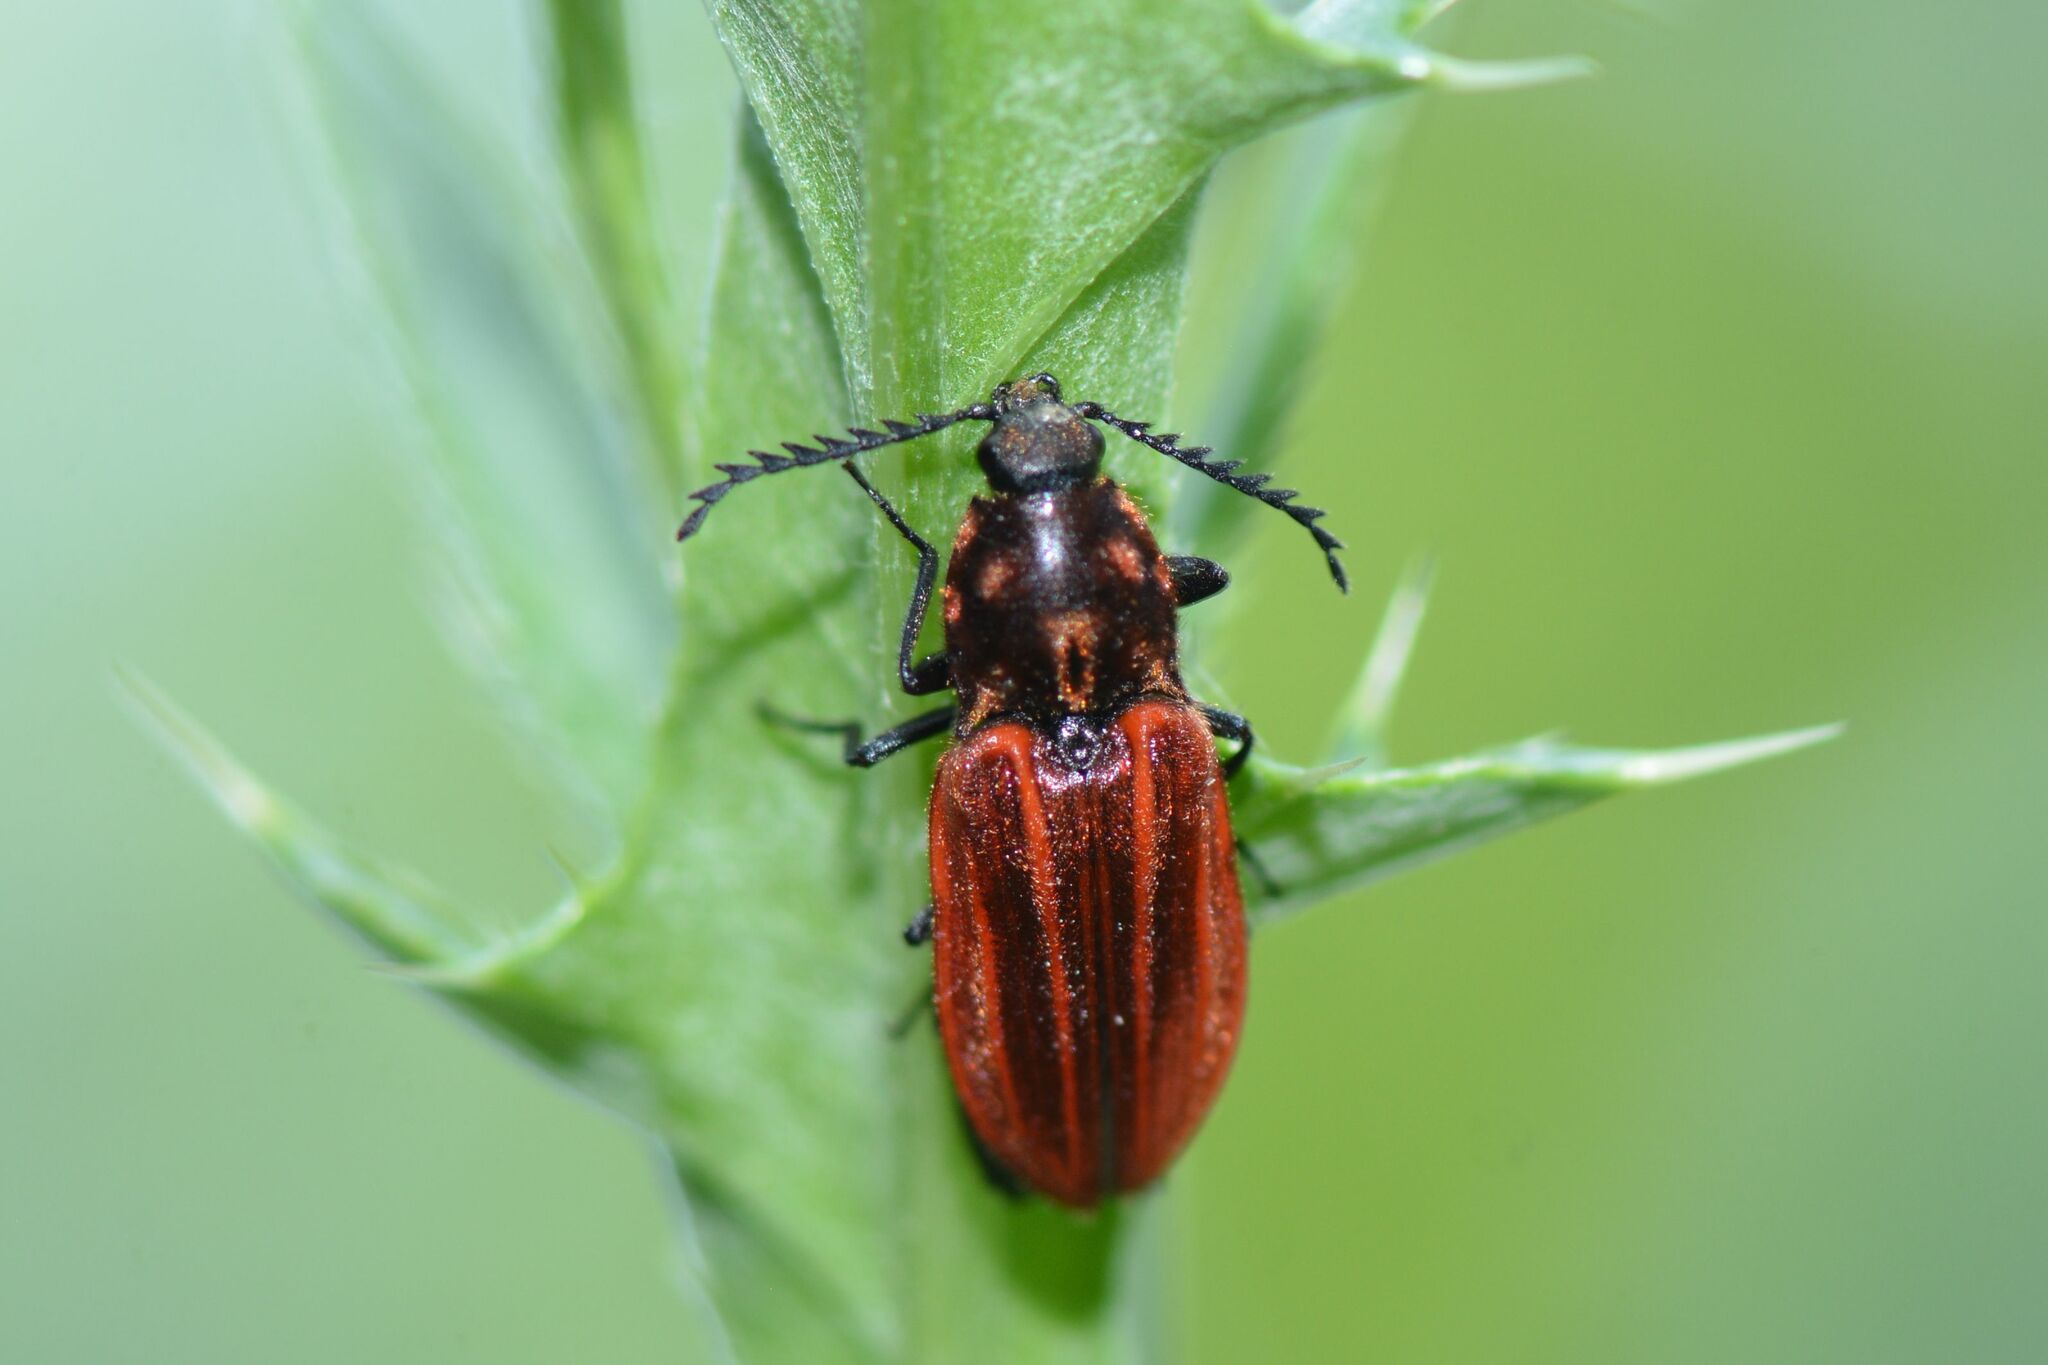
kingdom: Animalia
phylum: Arthropoda
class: Insecta
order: Coleoptera
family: Elateridae
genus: Anostirus
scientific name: Anostirus purpureus
